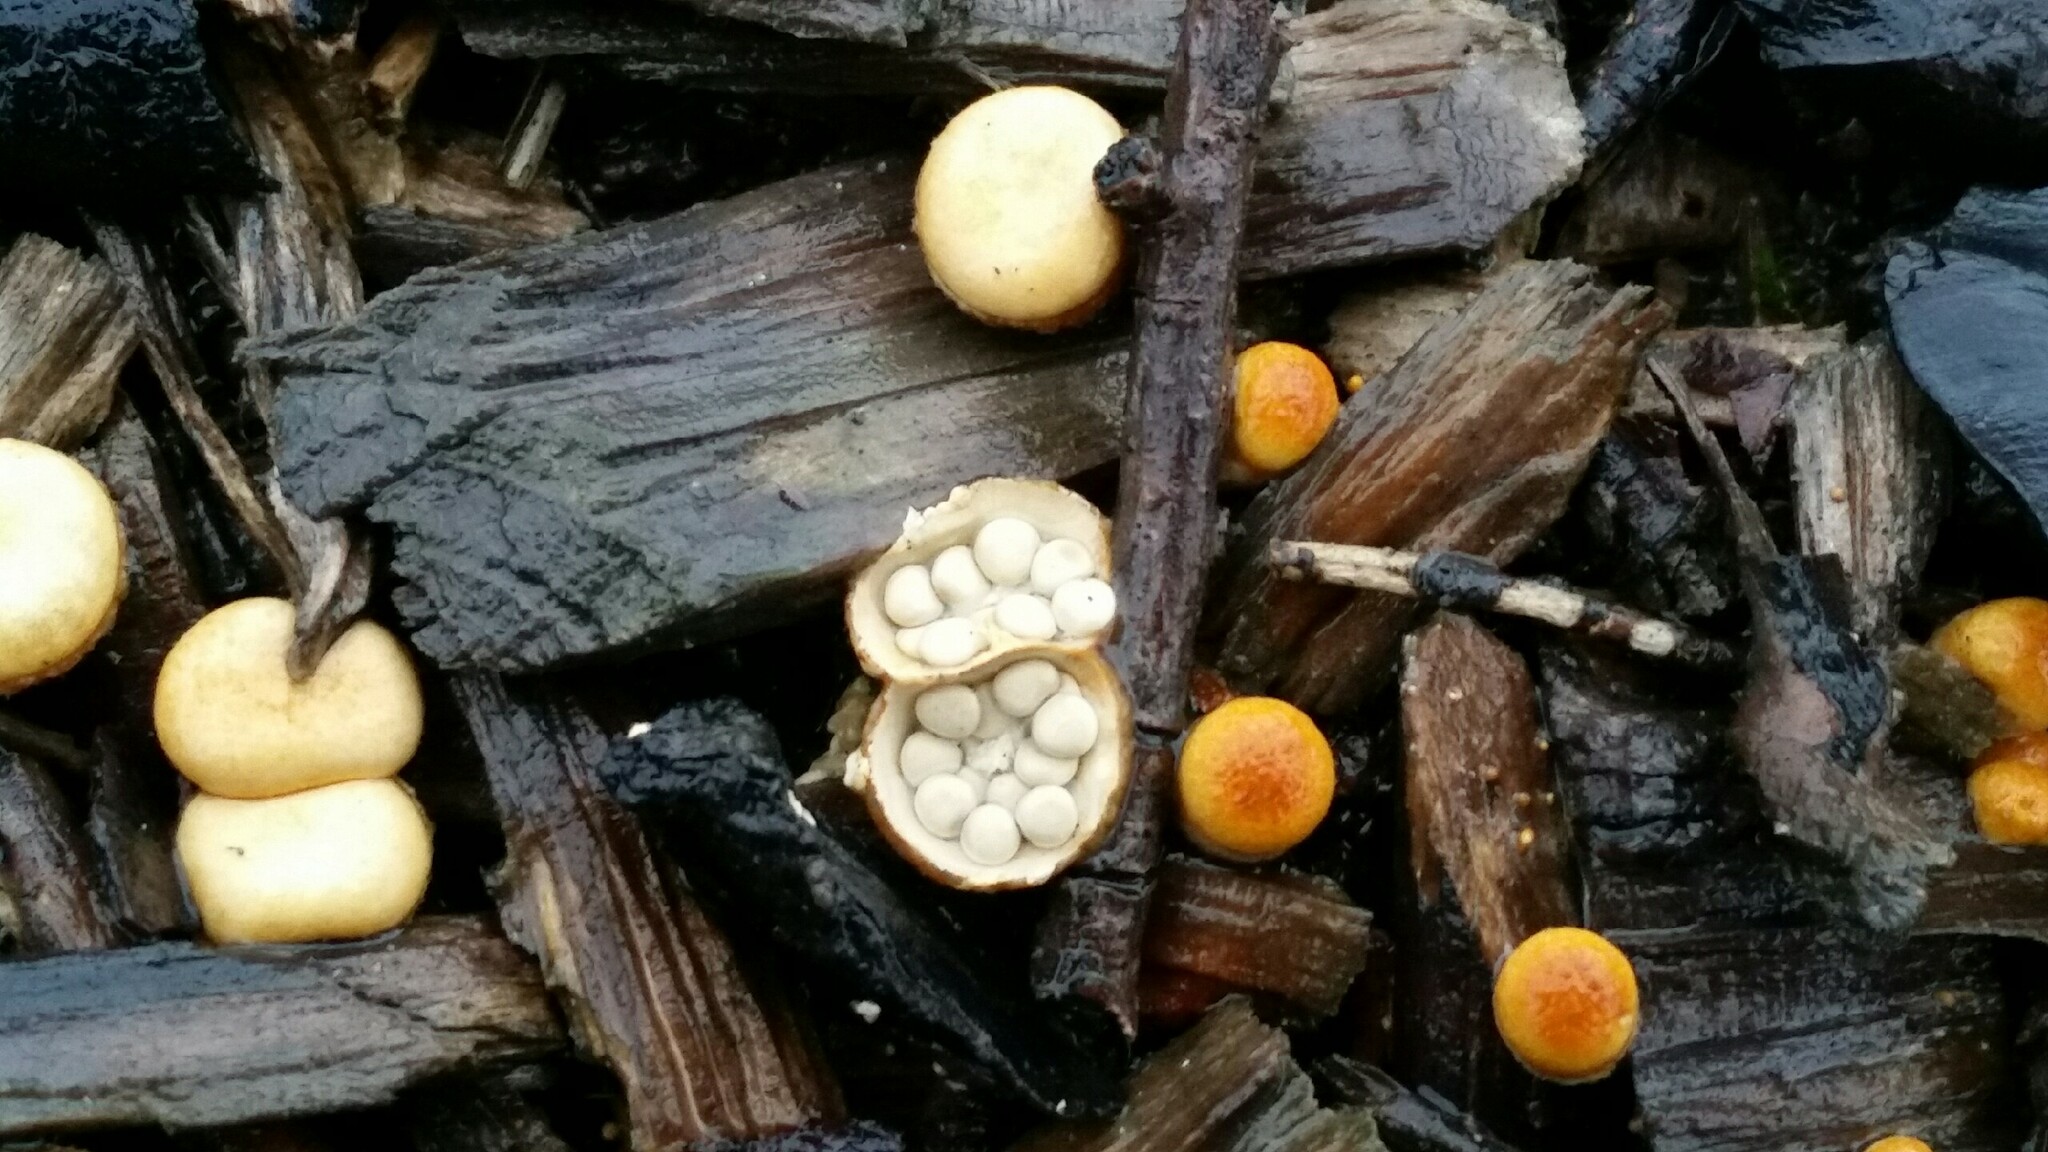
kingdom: Fungi
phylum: Basidiomycota
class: Agaricomycetes
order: Agaricales
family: Nidulariaceae
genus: Crucibulum
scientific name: Crucibulum laeve
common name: Common bird's nest
